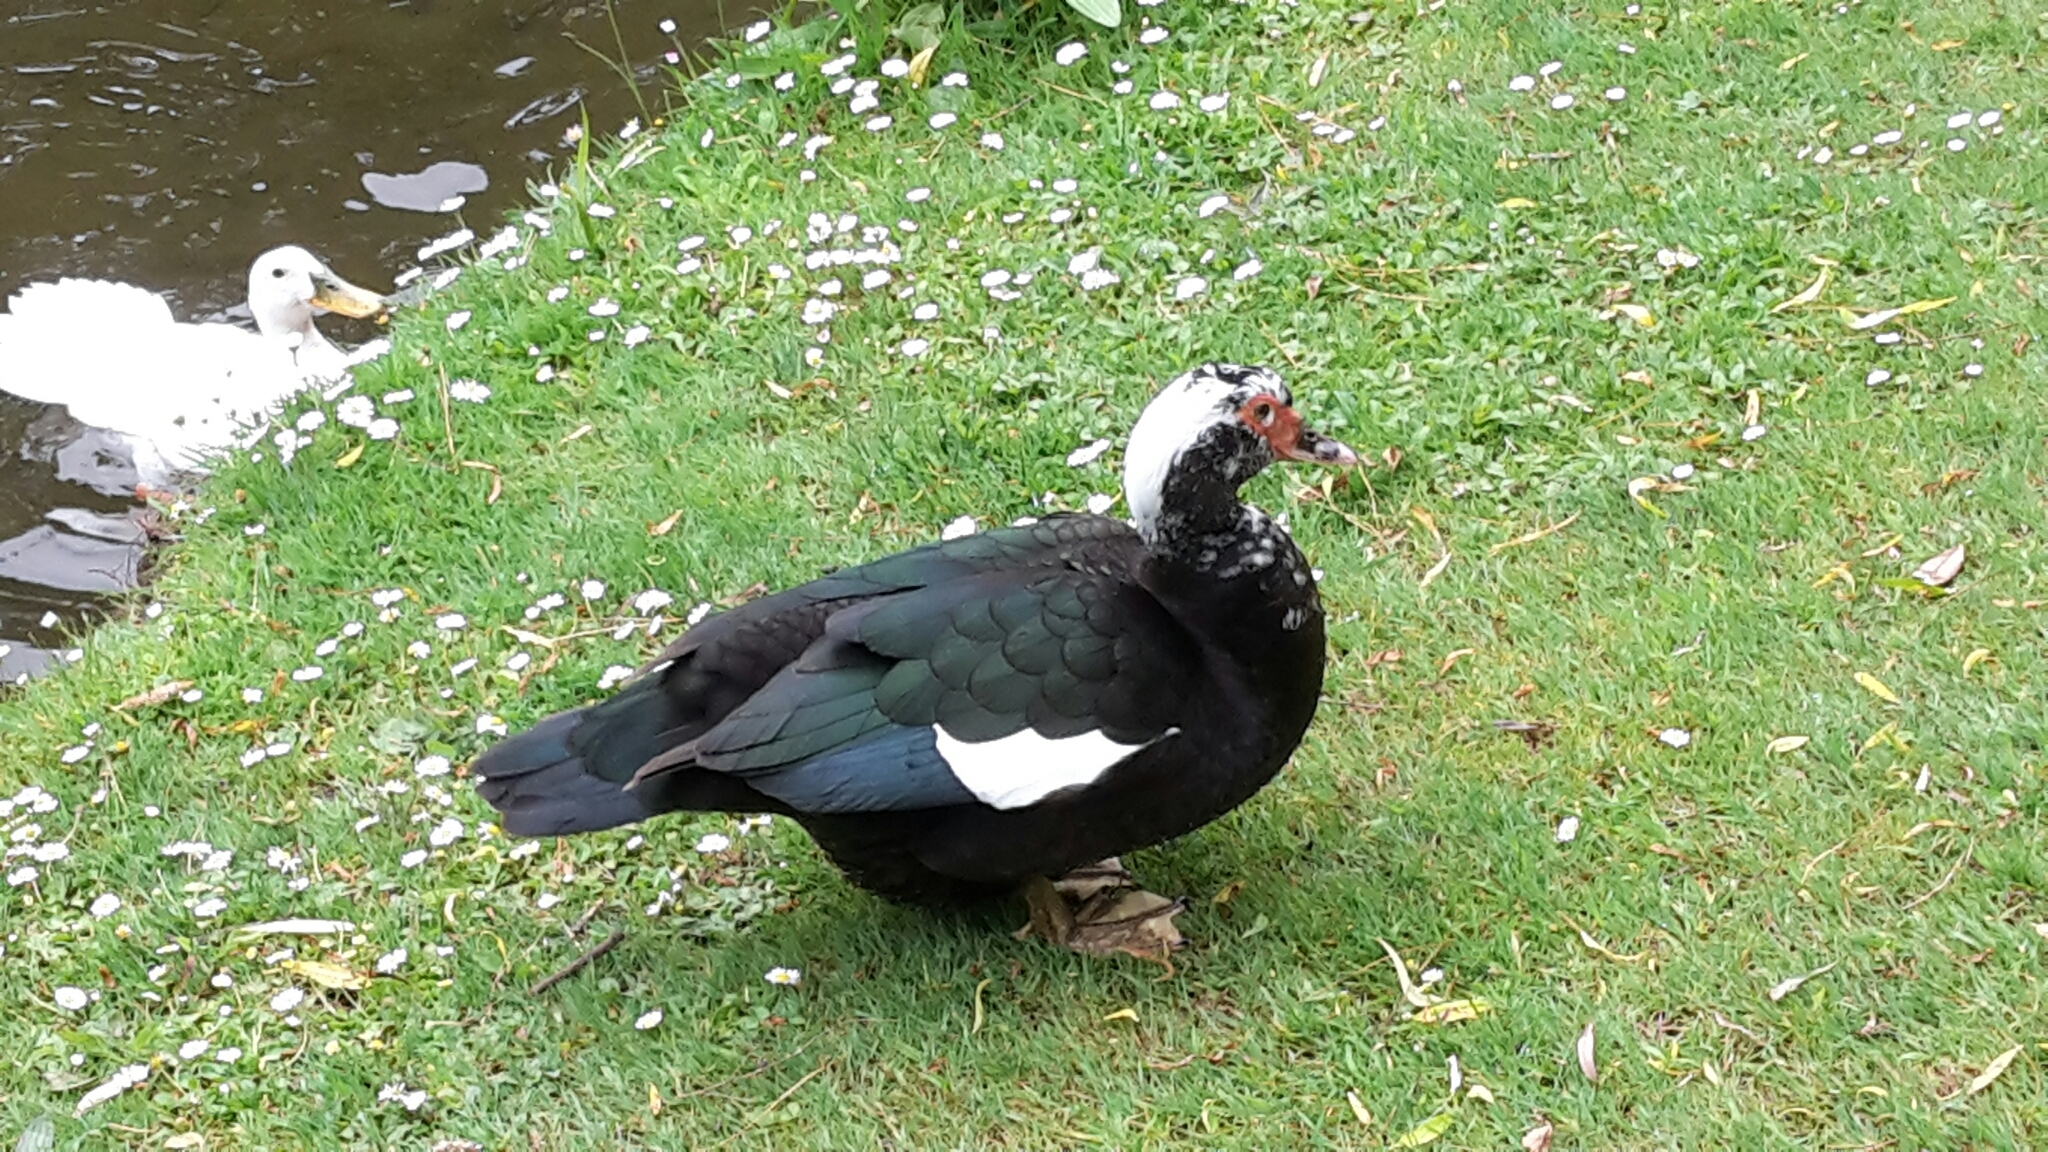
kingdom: Animalia
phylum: Chordata
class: Aves
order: Anseriformes
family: Anatidae
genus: Cairina
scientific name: Cairina moschata
